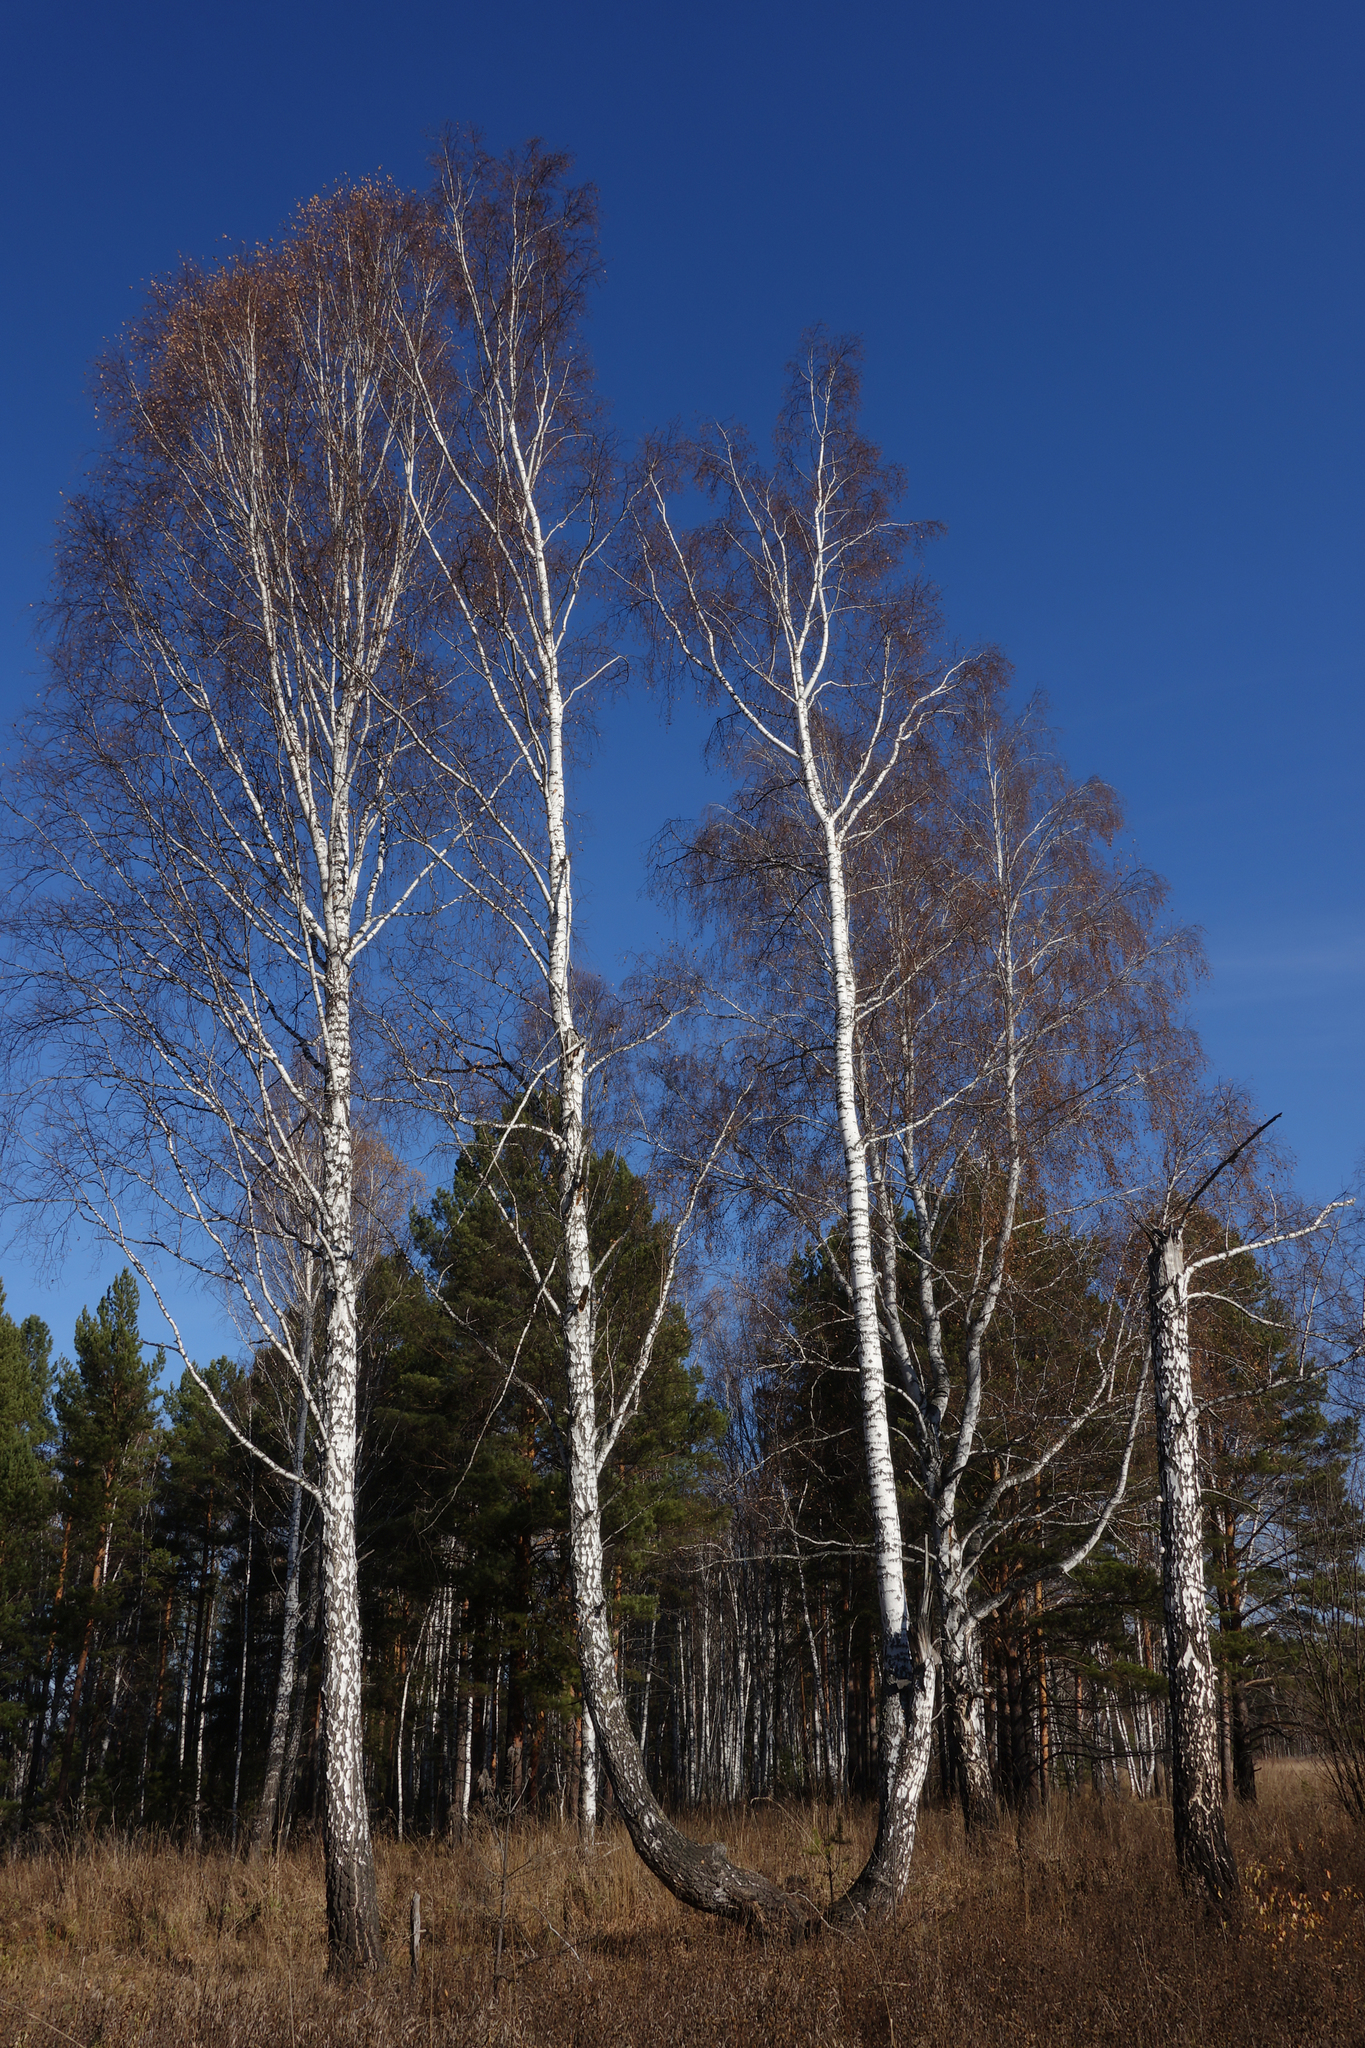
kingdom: Plantae
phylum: Tracheophyta
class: Magnoliopsida
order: Fagales
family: Betulaceae
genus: Betula
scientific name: Betula pendula
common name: Silver birch
